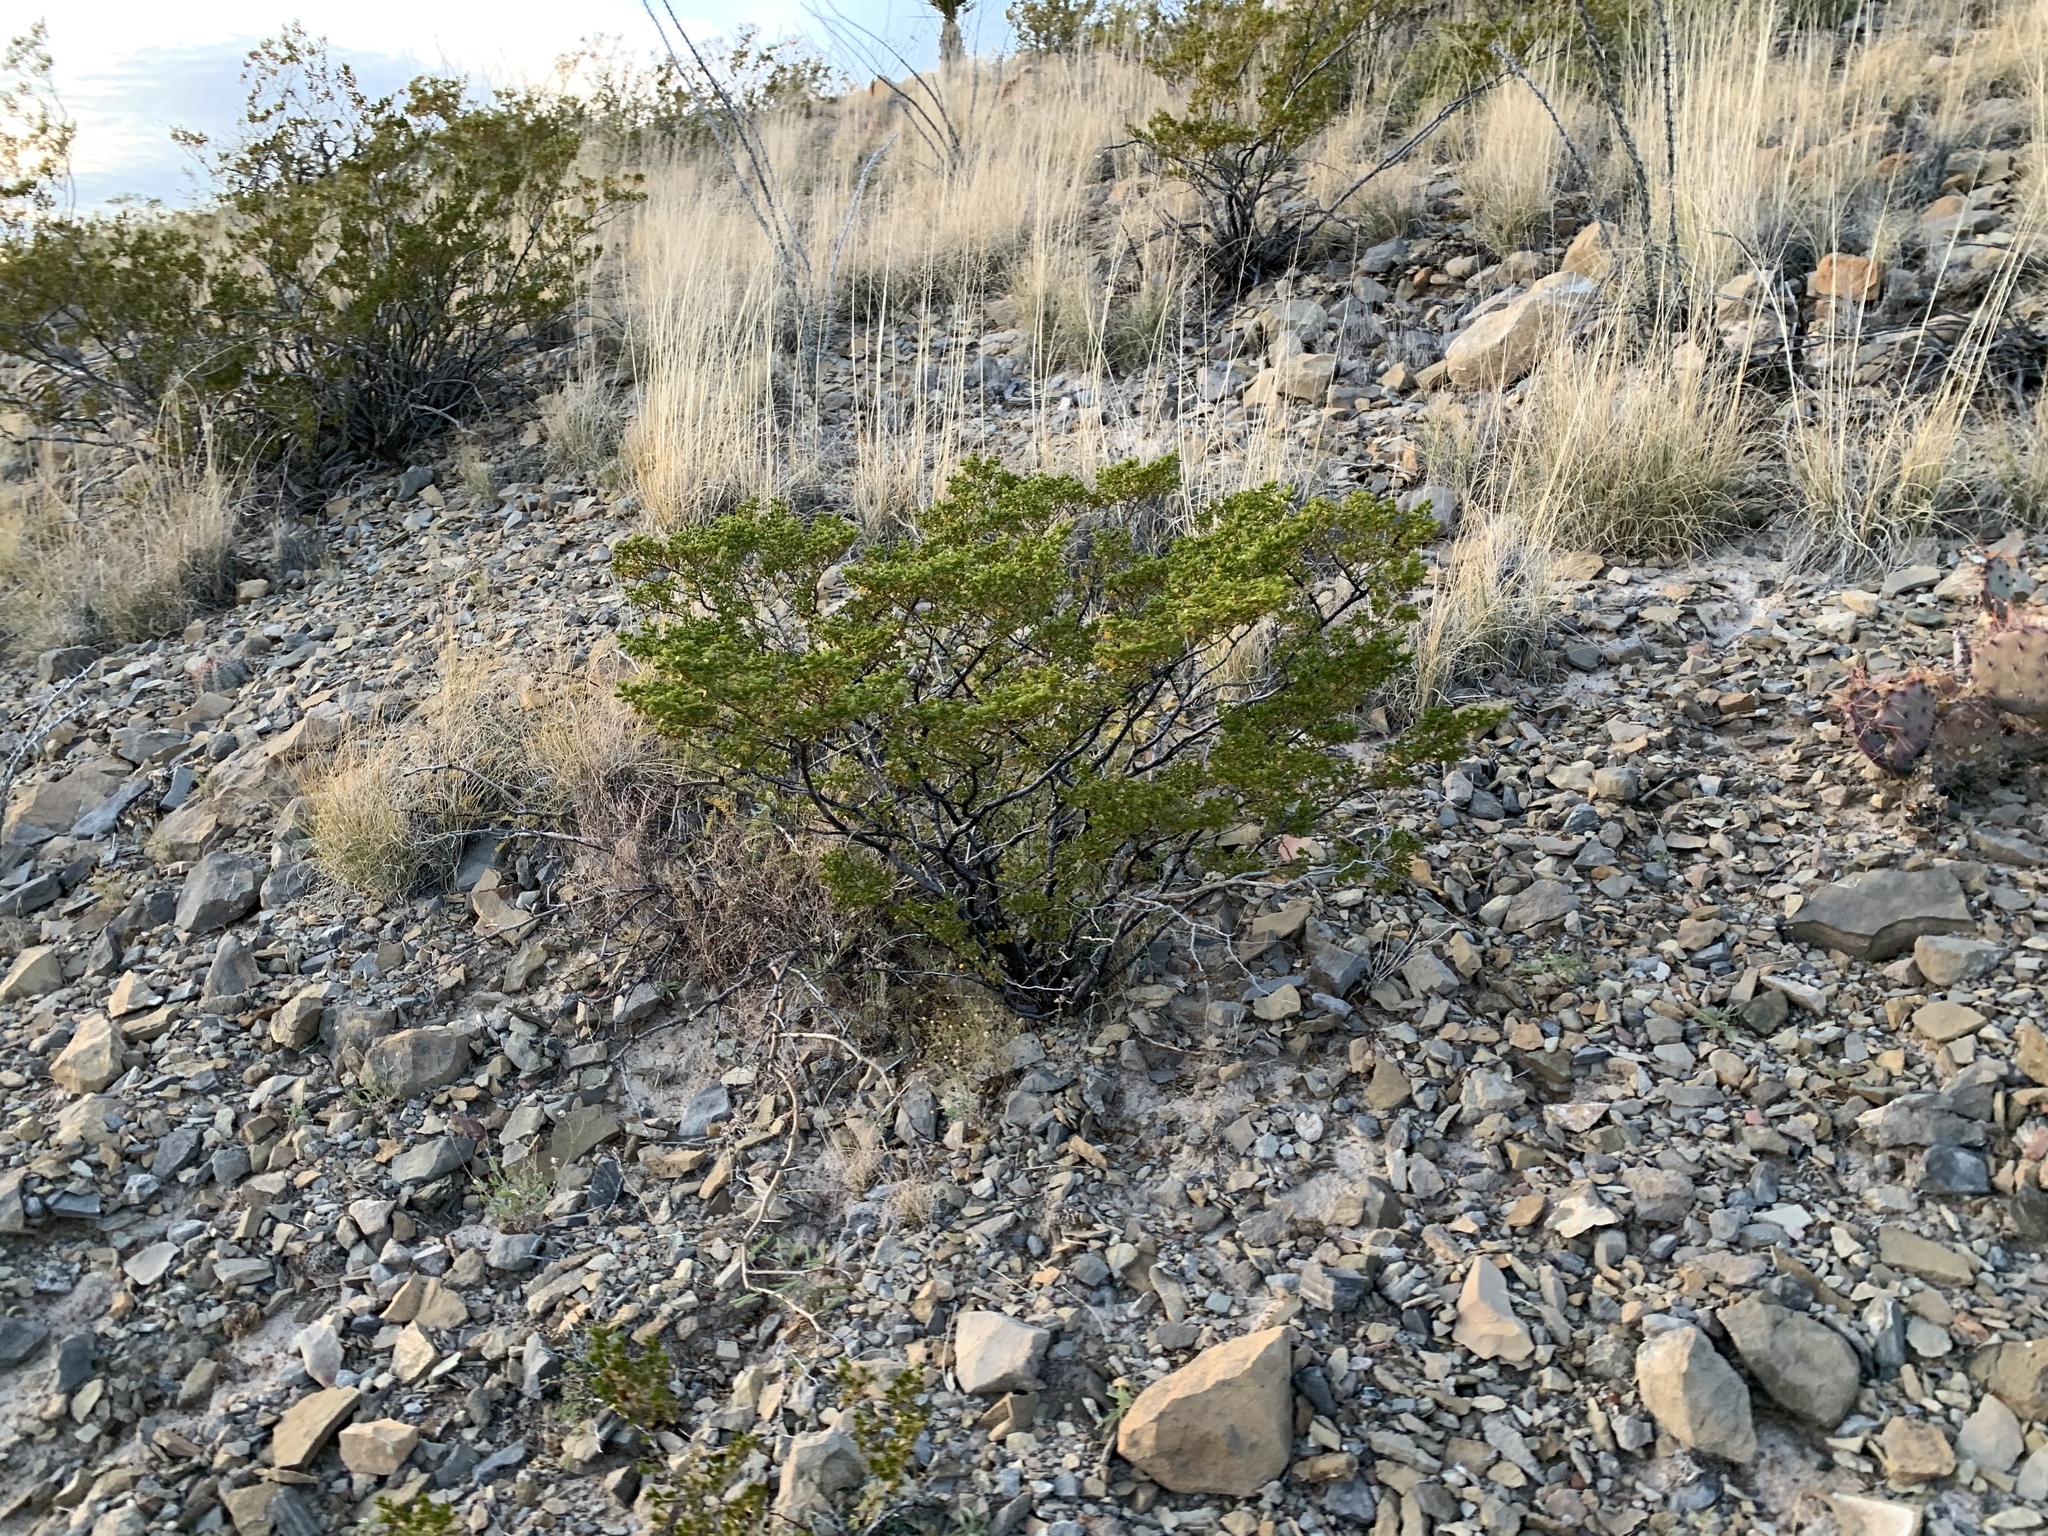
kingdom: Plantae
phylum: Tracheophyta
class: Magnoliopsida
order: Zygophyllales
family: Zygophyllaceae
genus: Larrea
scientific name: Larrea tridentata
